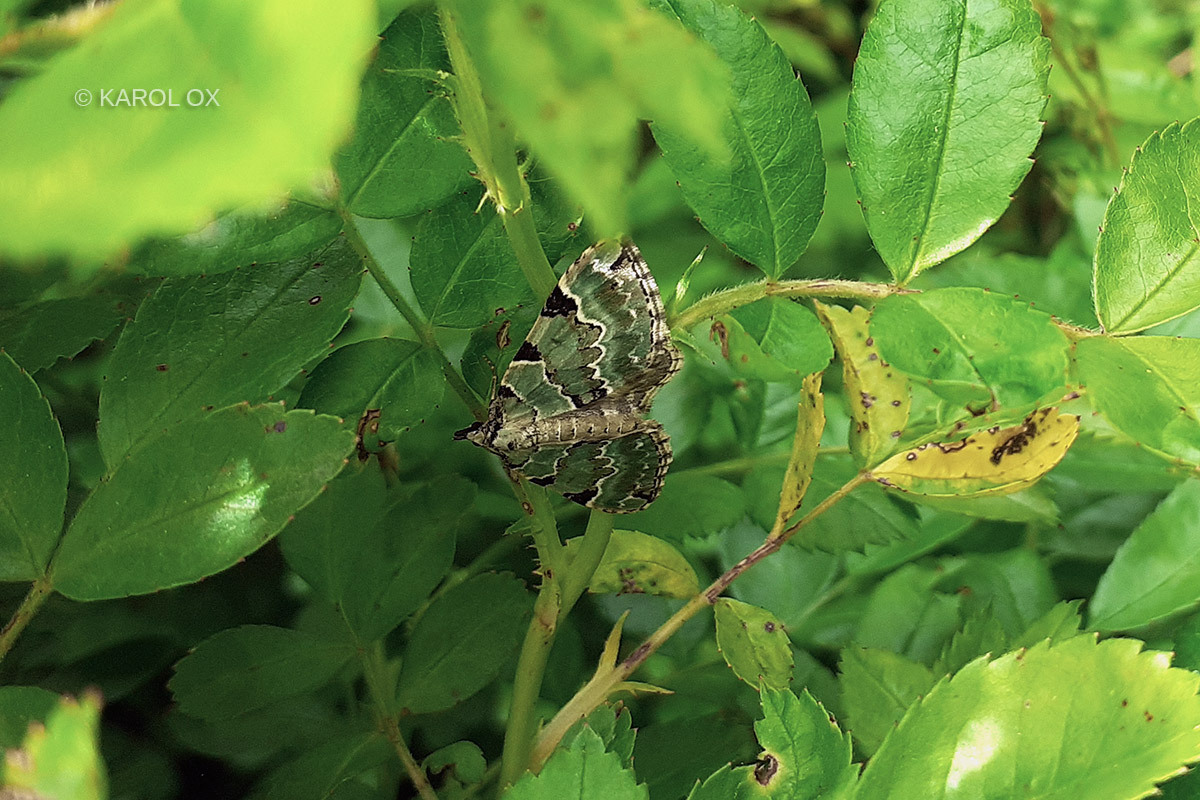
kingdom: Animalia
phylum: Arthropoda
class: Insecta
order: Lepidoptera
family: Geometridae
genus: Colostygia
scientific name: Colostygia pectinataria
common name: Green carpet
